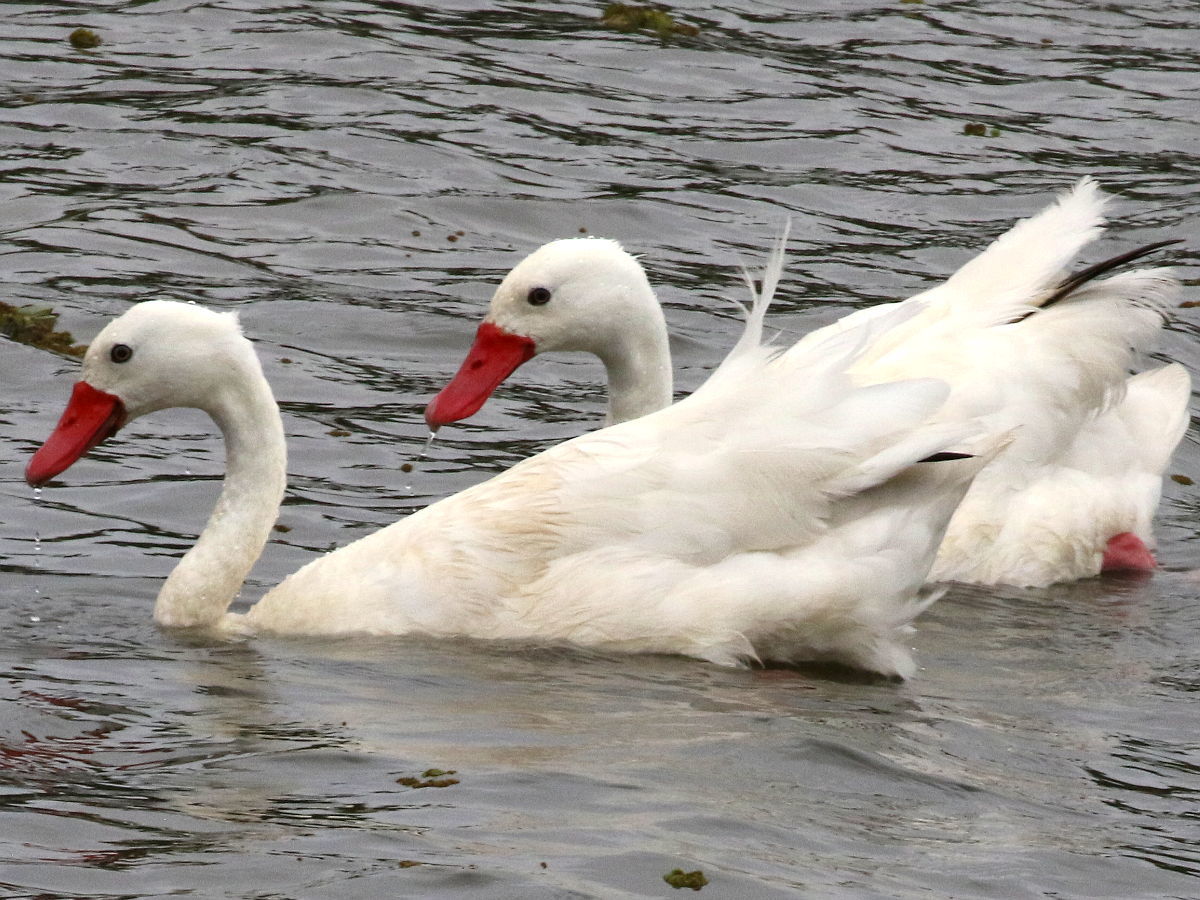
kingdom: Animalia
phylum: Chordata
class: Aves
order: Anseriformes
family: Anatidae
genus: Coscoroba
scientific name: Coscoroba coscoroba
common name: Coscoroba swan
